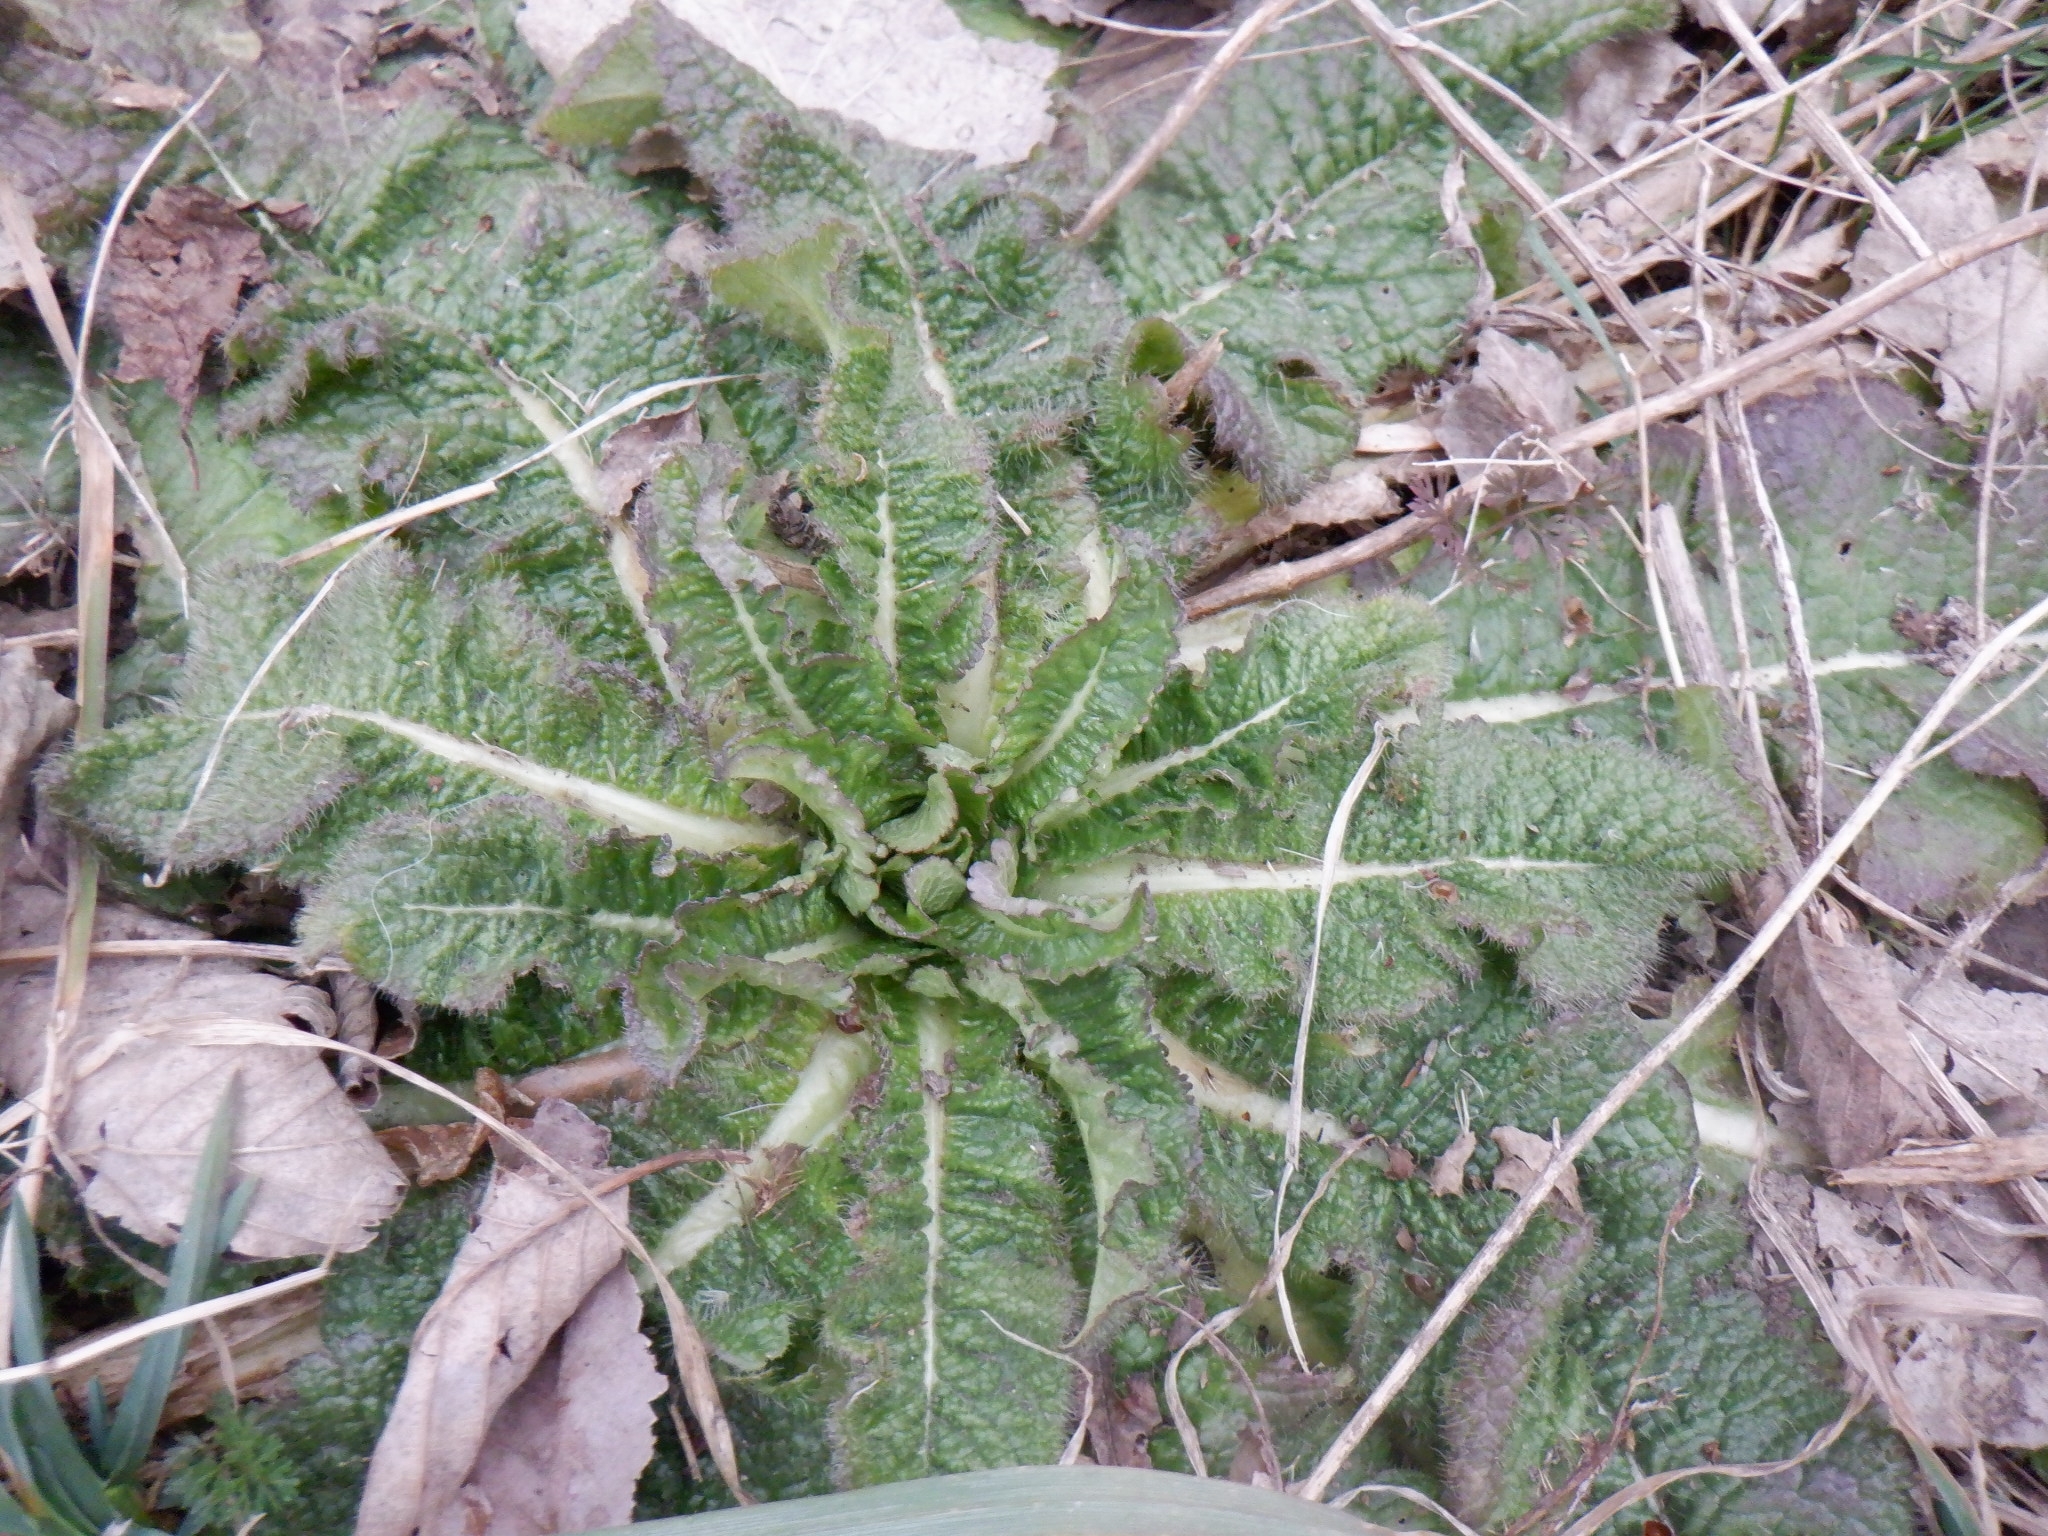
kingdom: Plantae
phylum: Tracheophyta
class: Magnoliopsida
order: Dipsacales
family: Caprifoliaceae
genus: Dipsacus
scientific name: Dipsacus laciniatus
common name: Cut-leaved teasel
